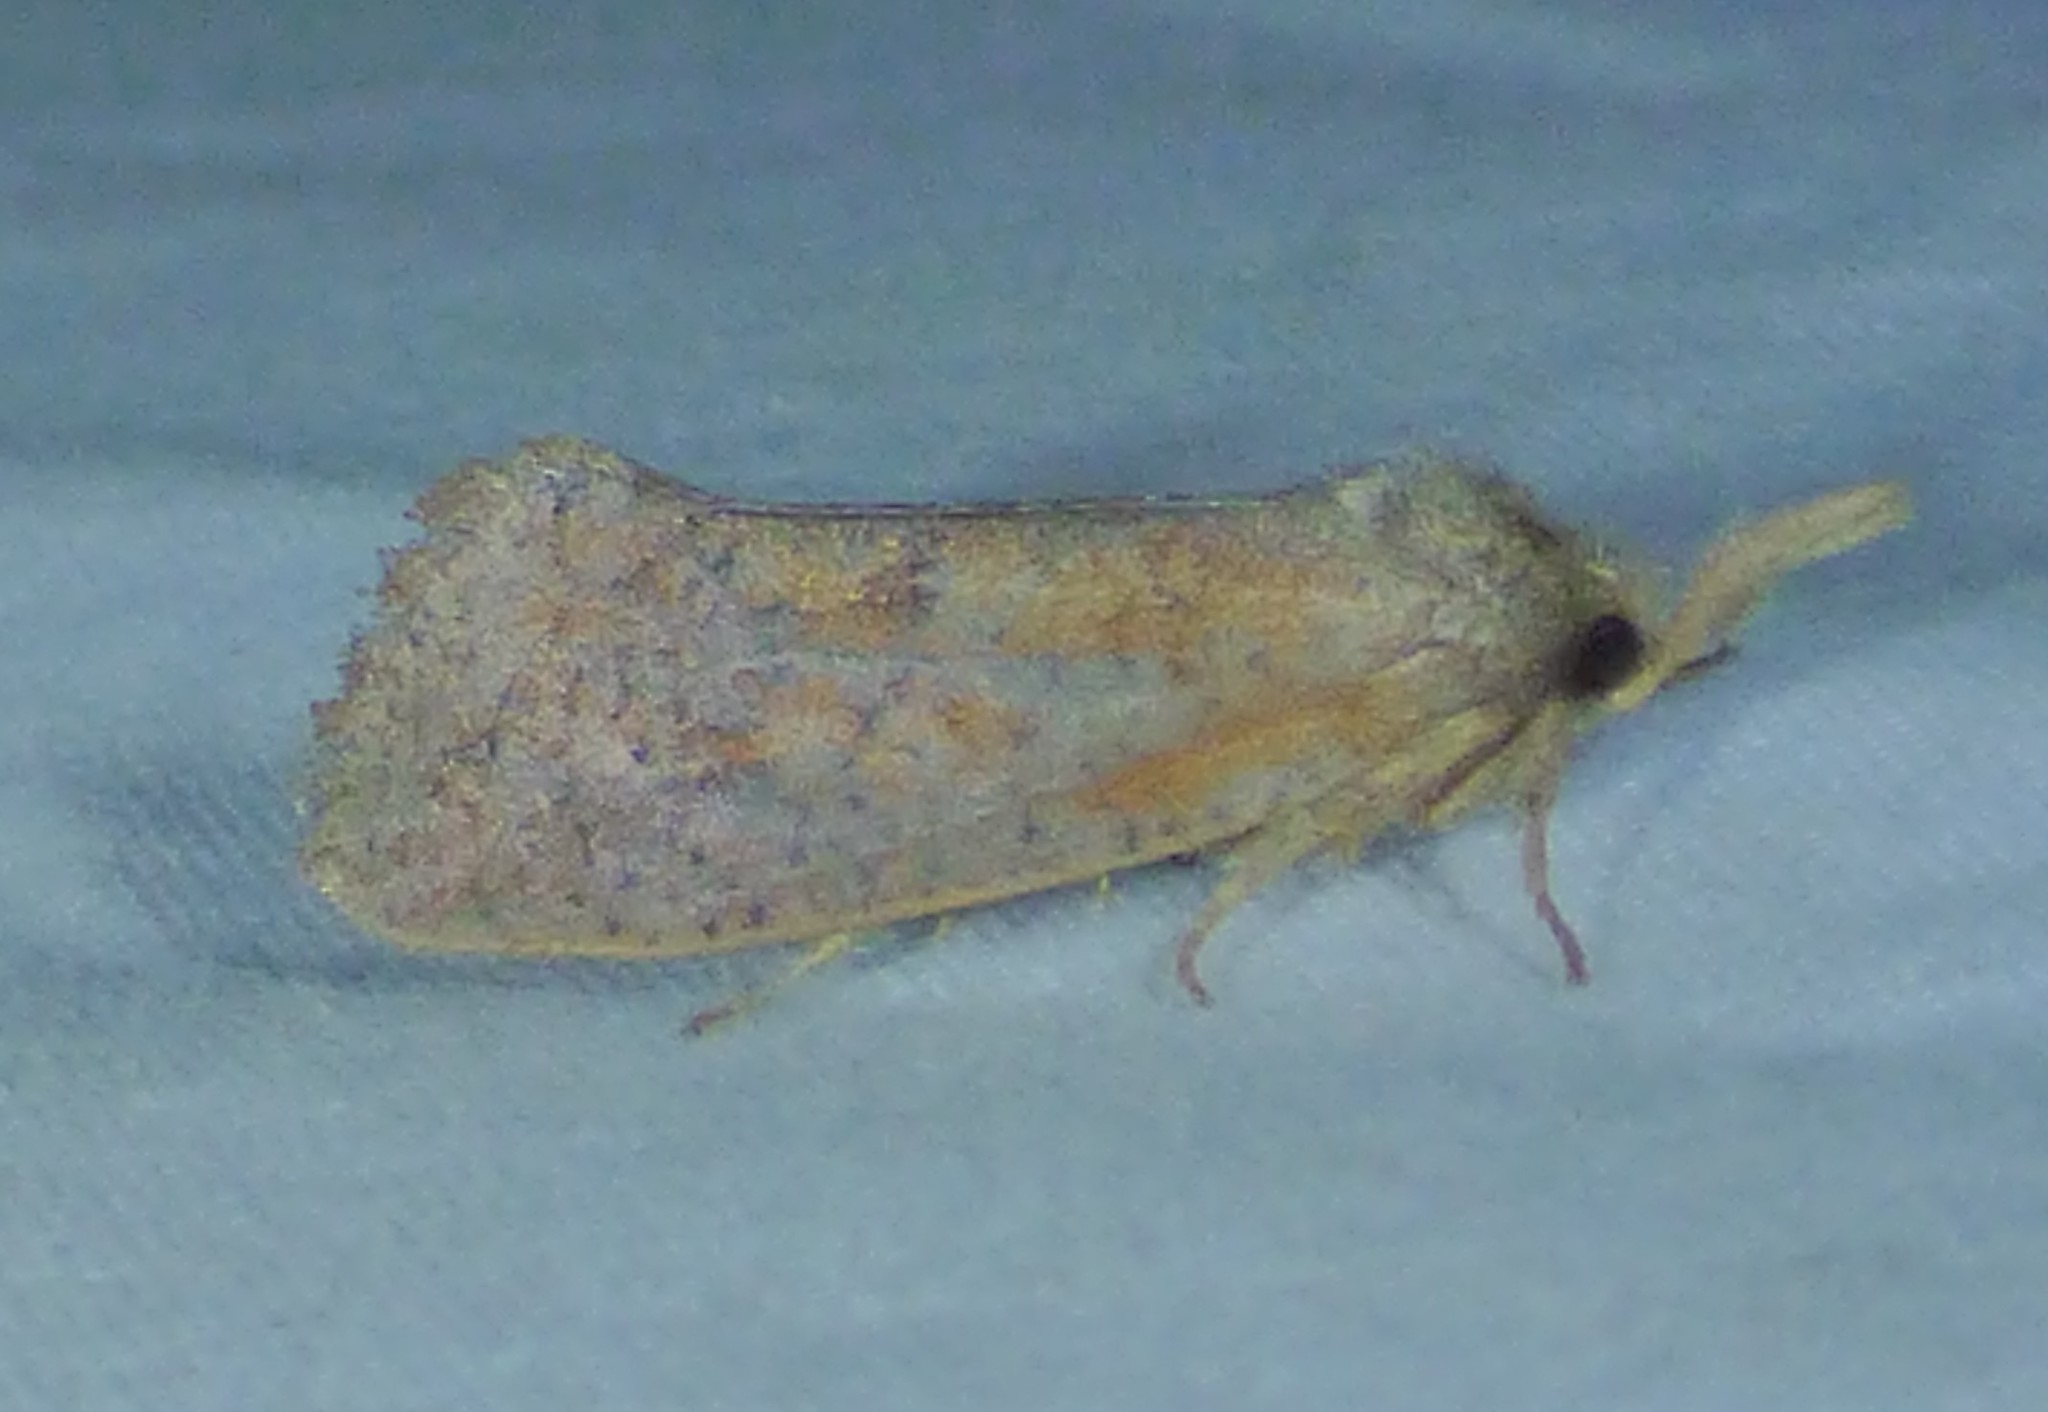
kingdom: Animalia
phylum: Arthropoda
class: Insecta
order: Lepidoptera
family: Tineidae
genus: Acrolophus
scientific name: Acrolophus plumifrontella
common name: Eastern grass tubeworm moth
